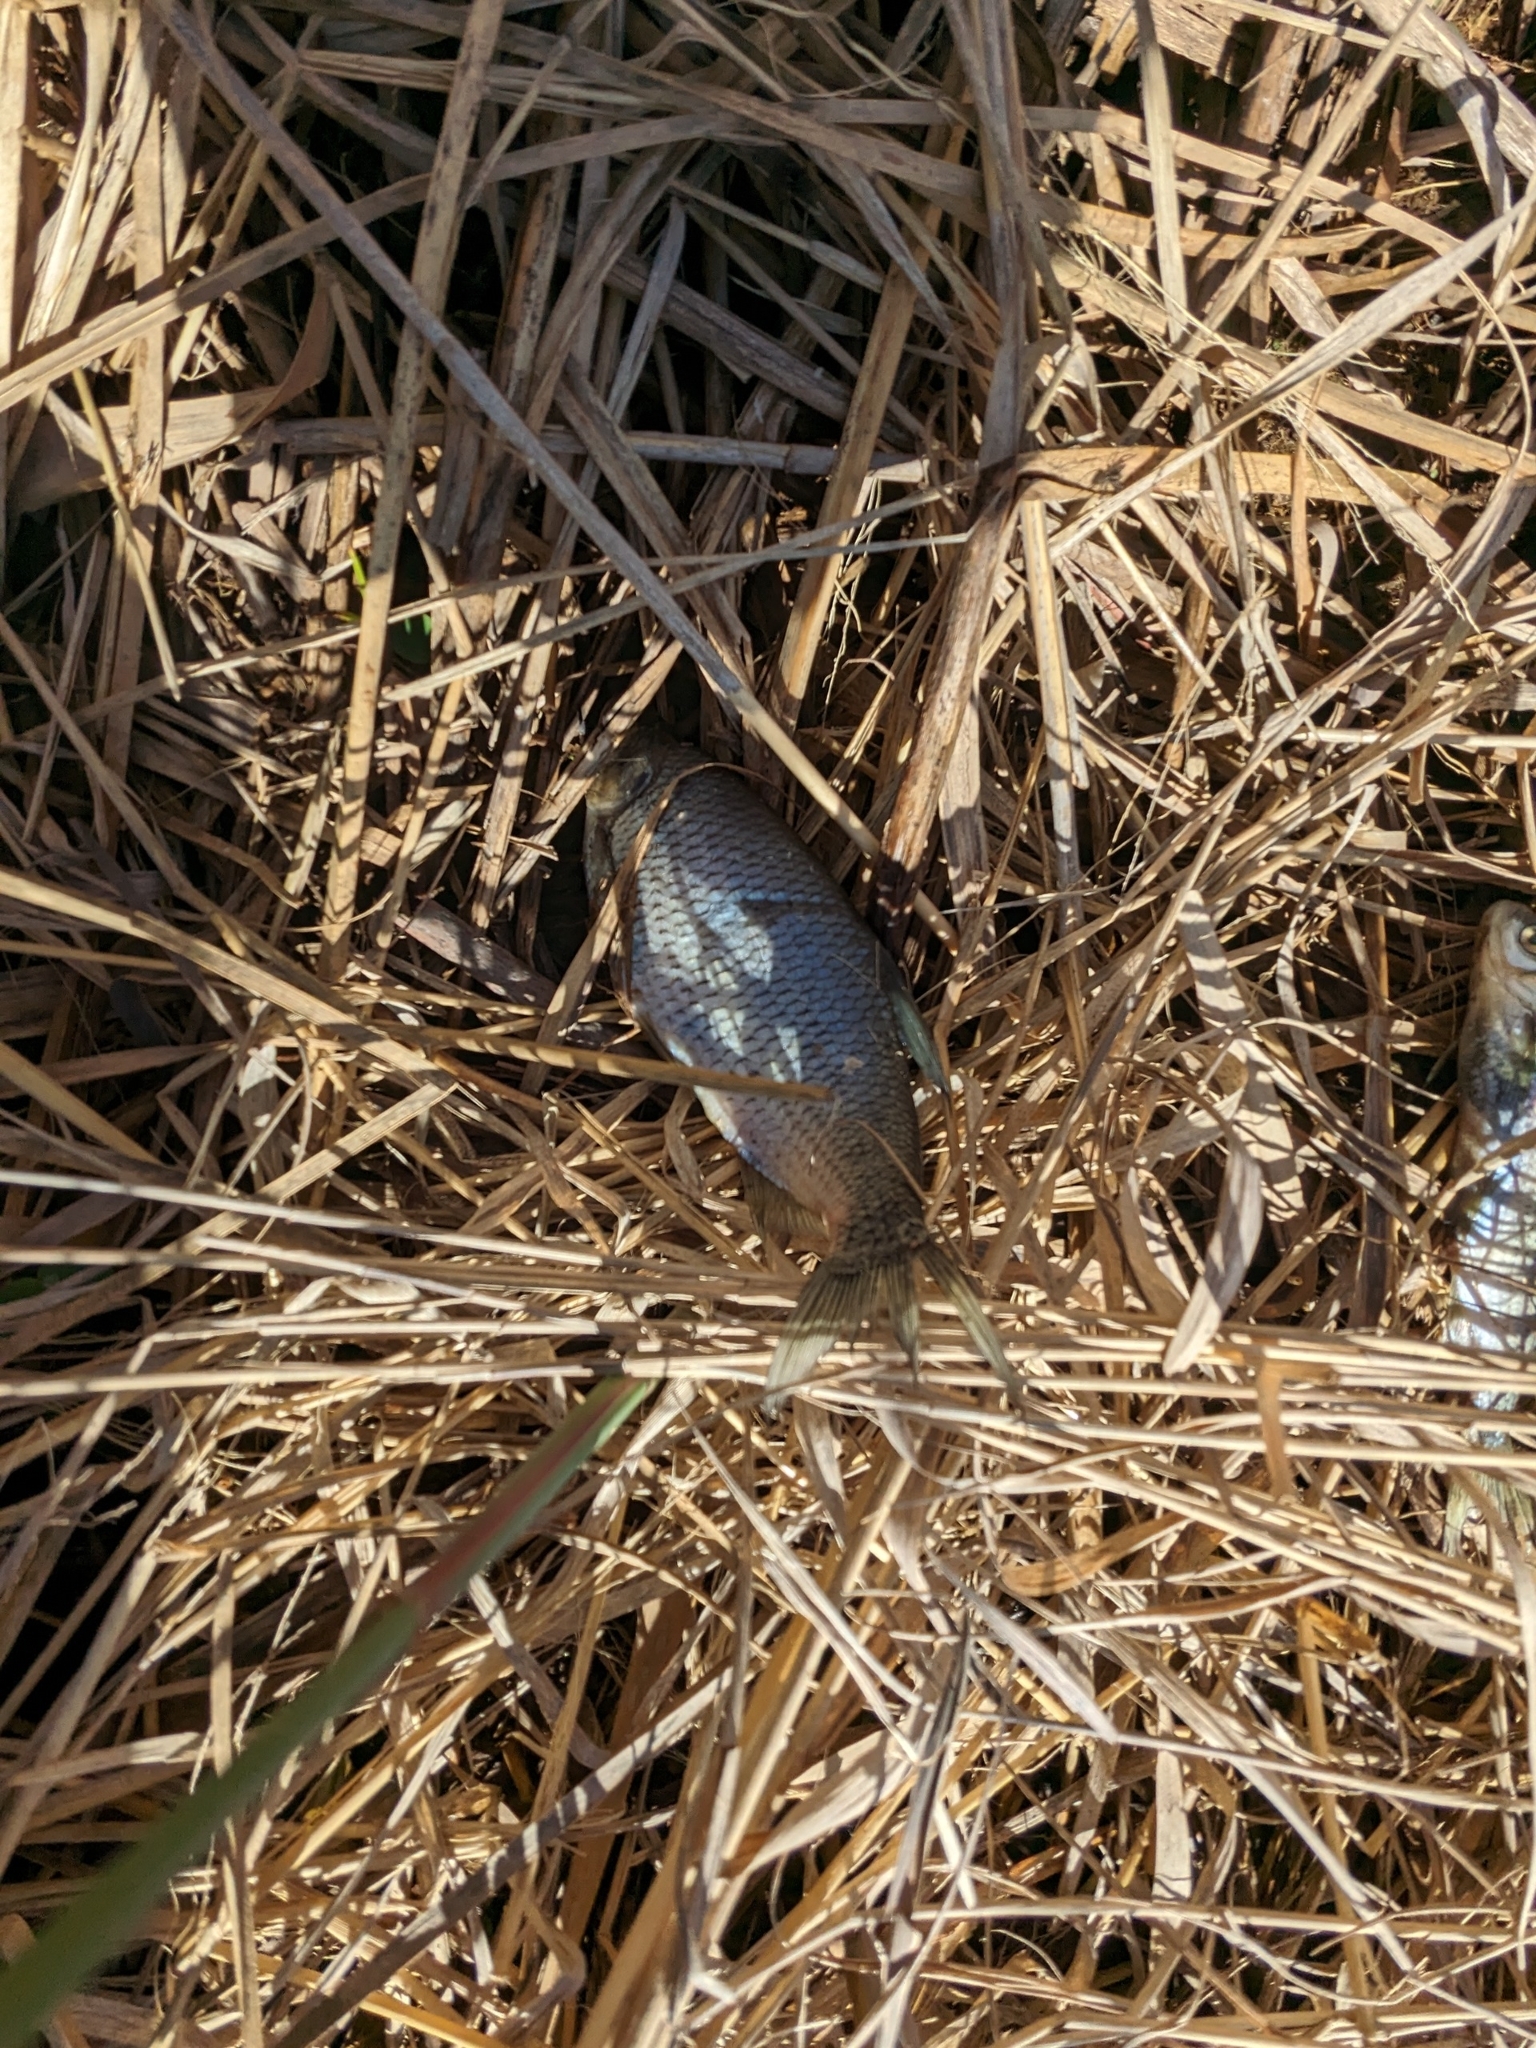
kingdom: Animalia
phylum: Chordata
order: Cypriniformes
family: Cyprinidae
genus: Notemigonus
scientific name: Notemigonus crysoleucas
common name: Golden shiner
